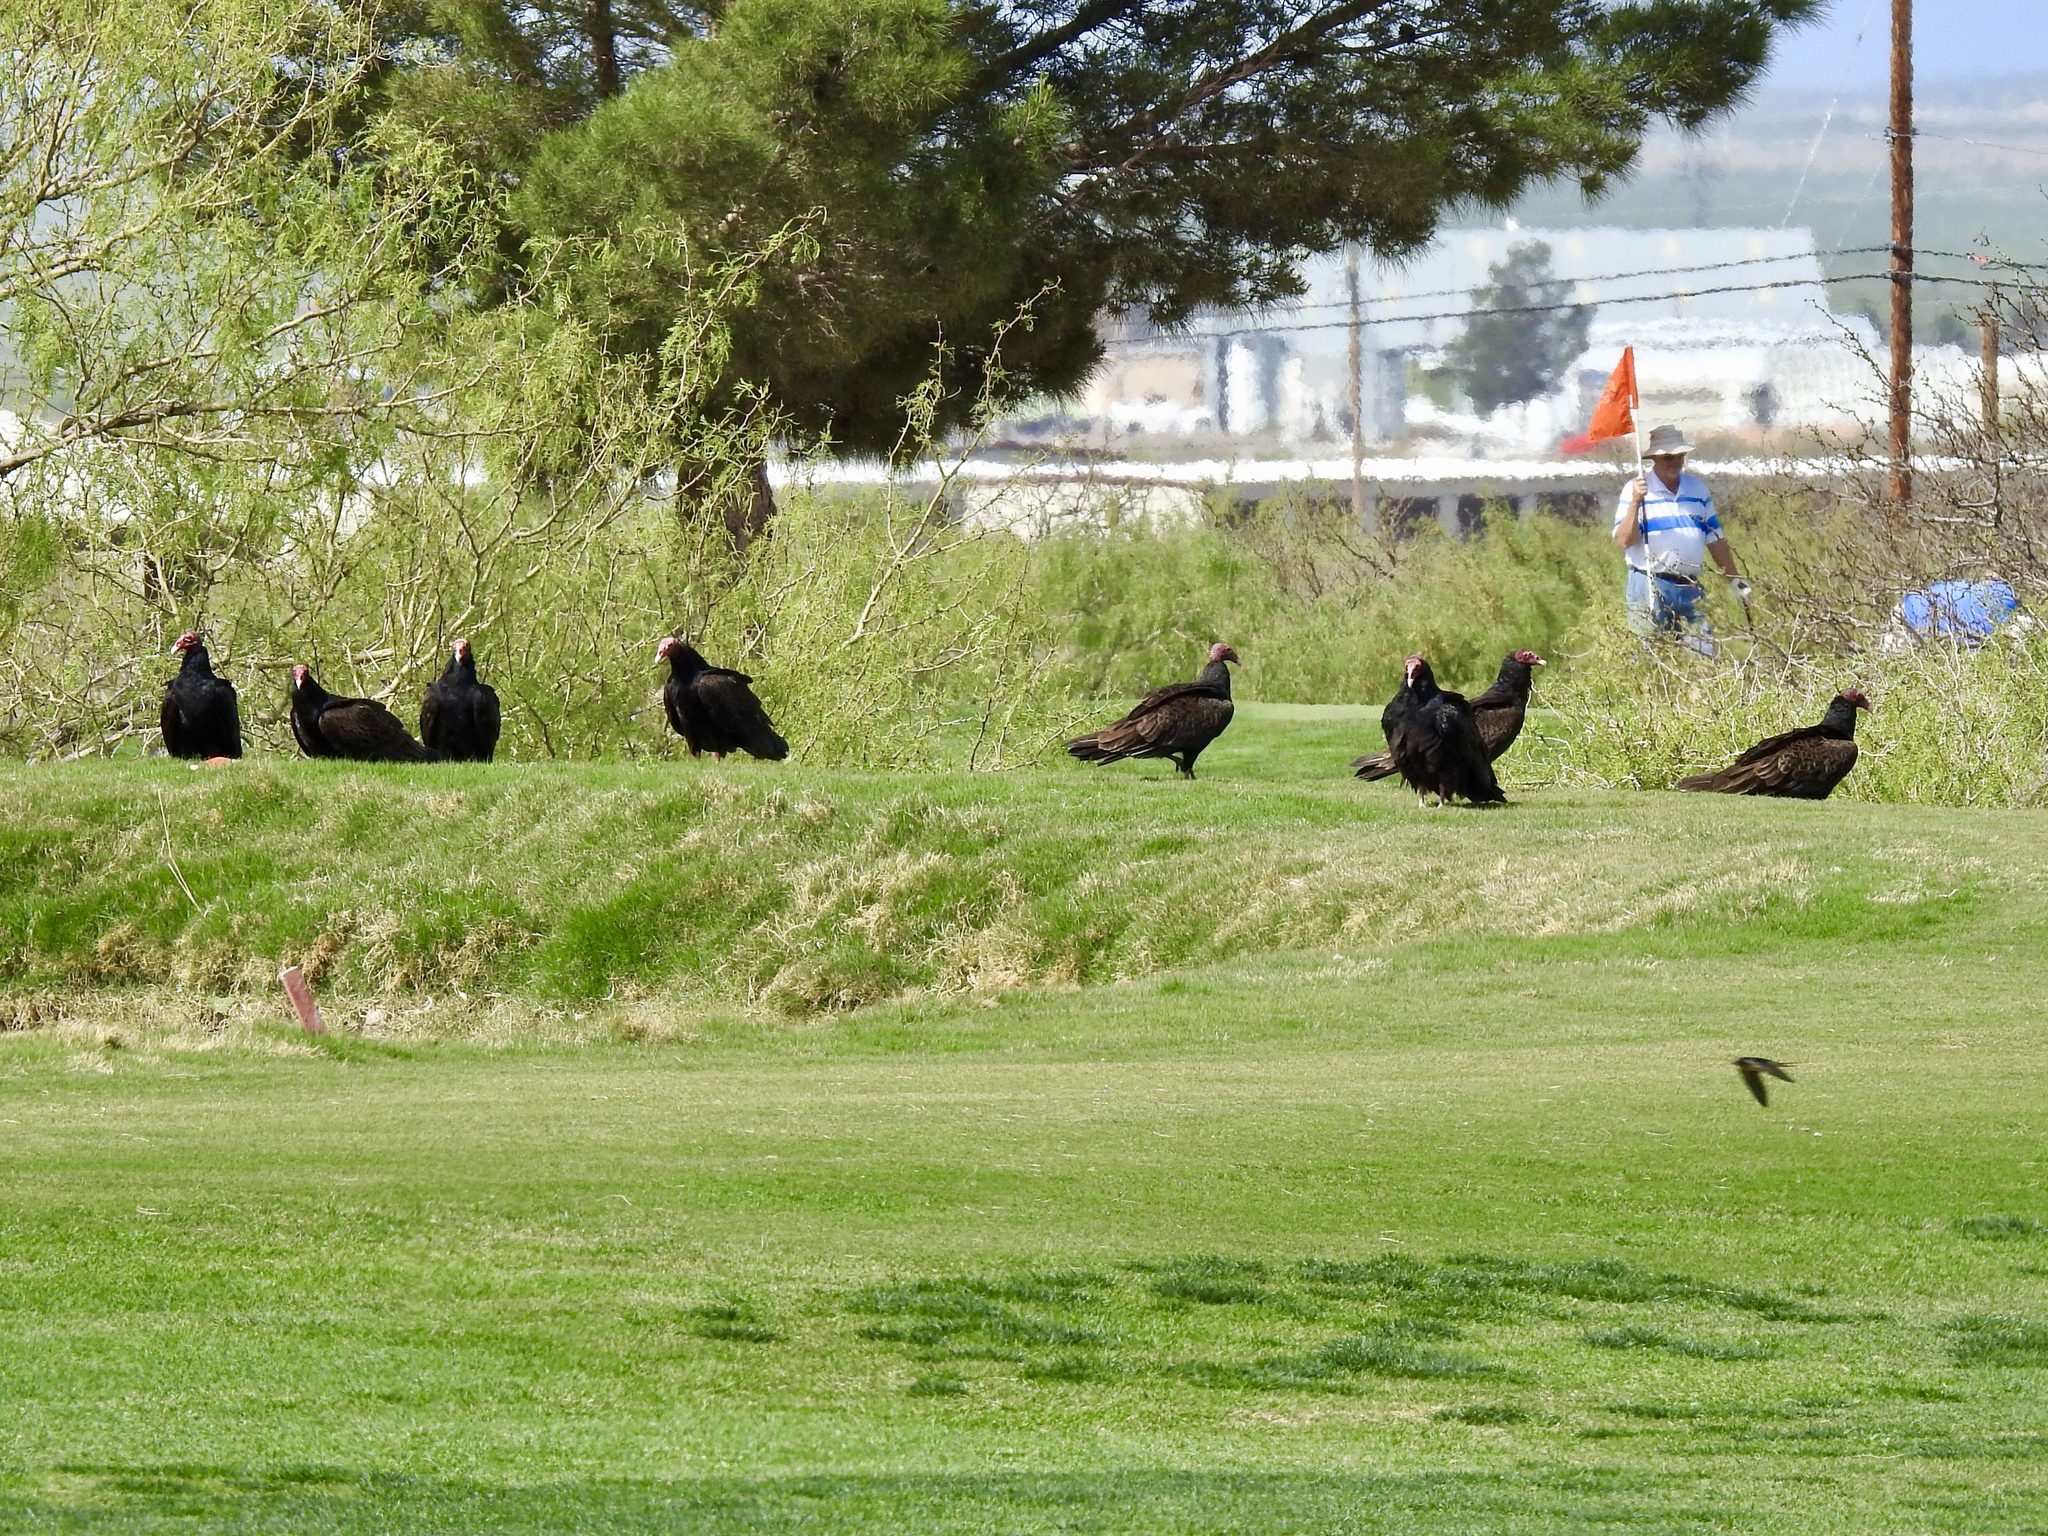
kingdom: Animalia
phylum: Chordata
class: Aves
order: Accipitriformes
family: Cathartidae
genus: Cathartes
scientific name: Cathartes aura
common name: Turkey vulture
